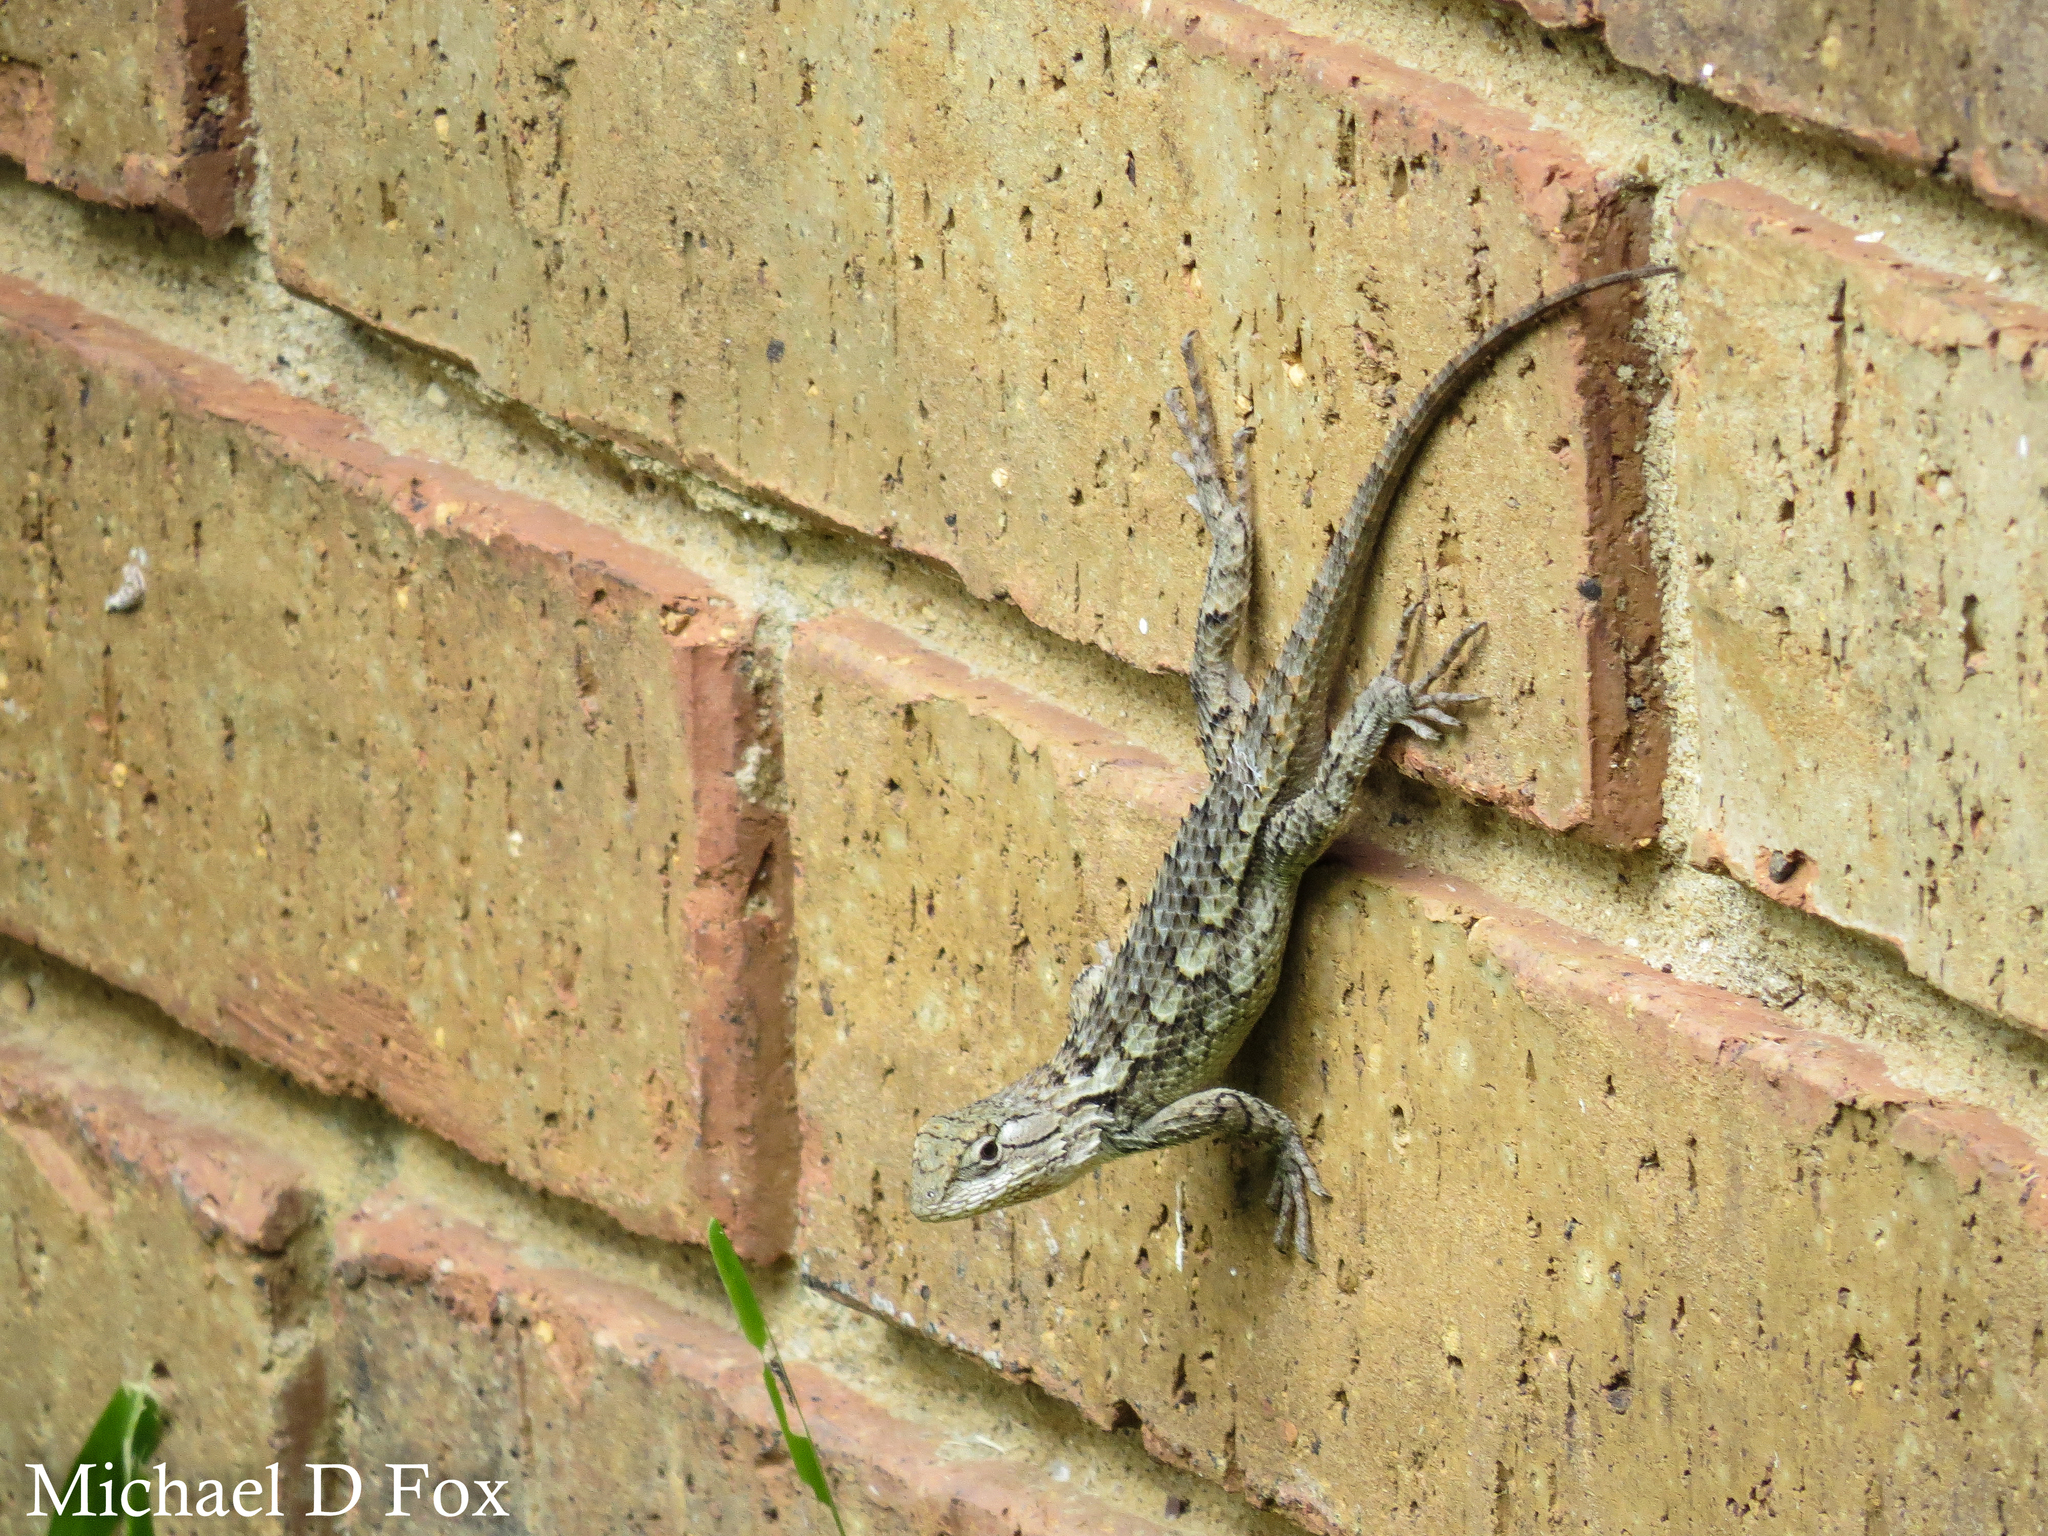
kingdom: Animalia
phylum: Chordata
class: Squamata
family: Phrynosomatidae
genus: Sceloporus
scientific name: Sceloporus olivaceus
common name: Texas spiny lizard
